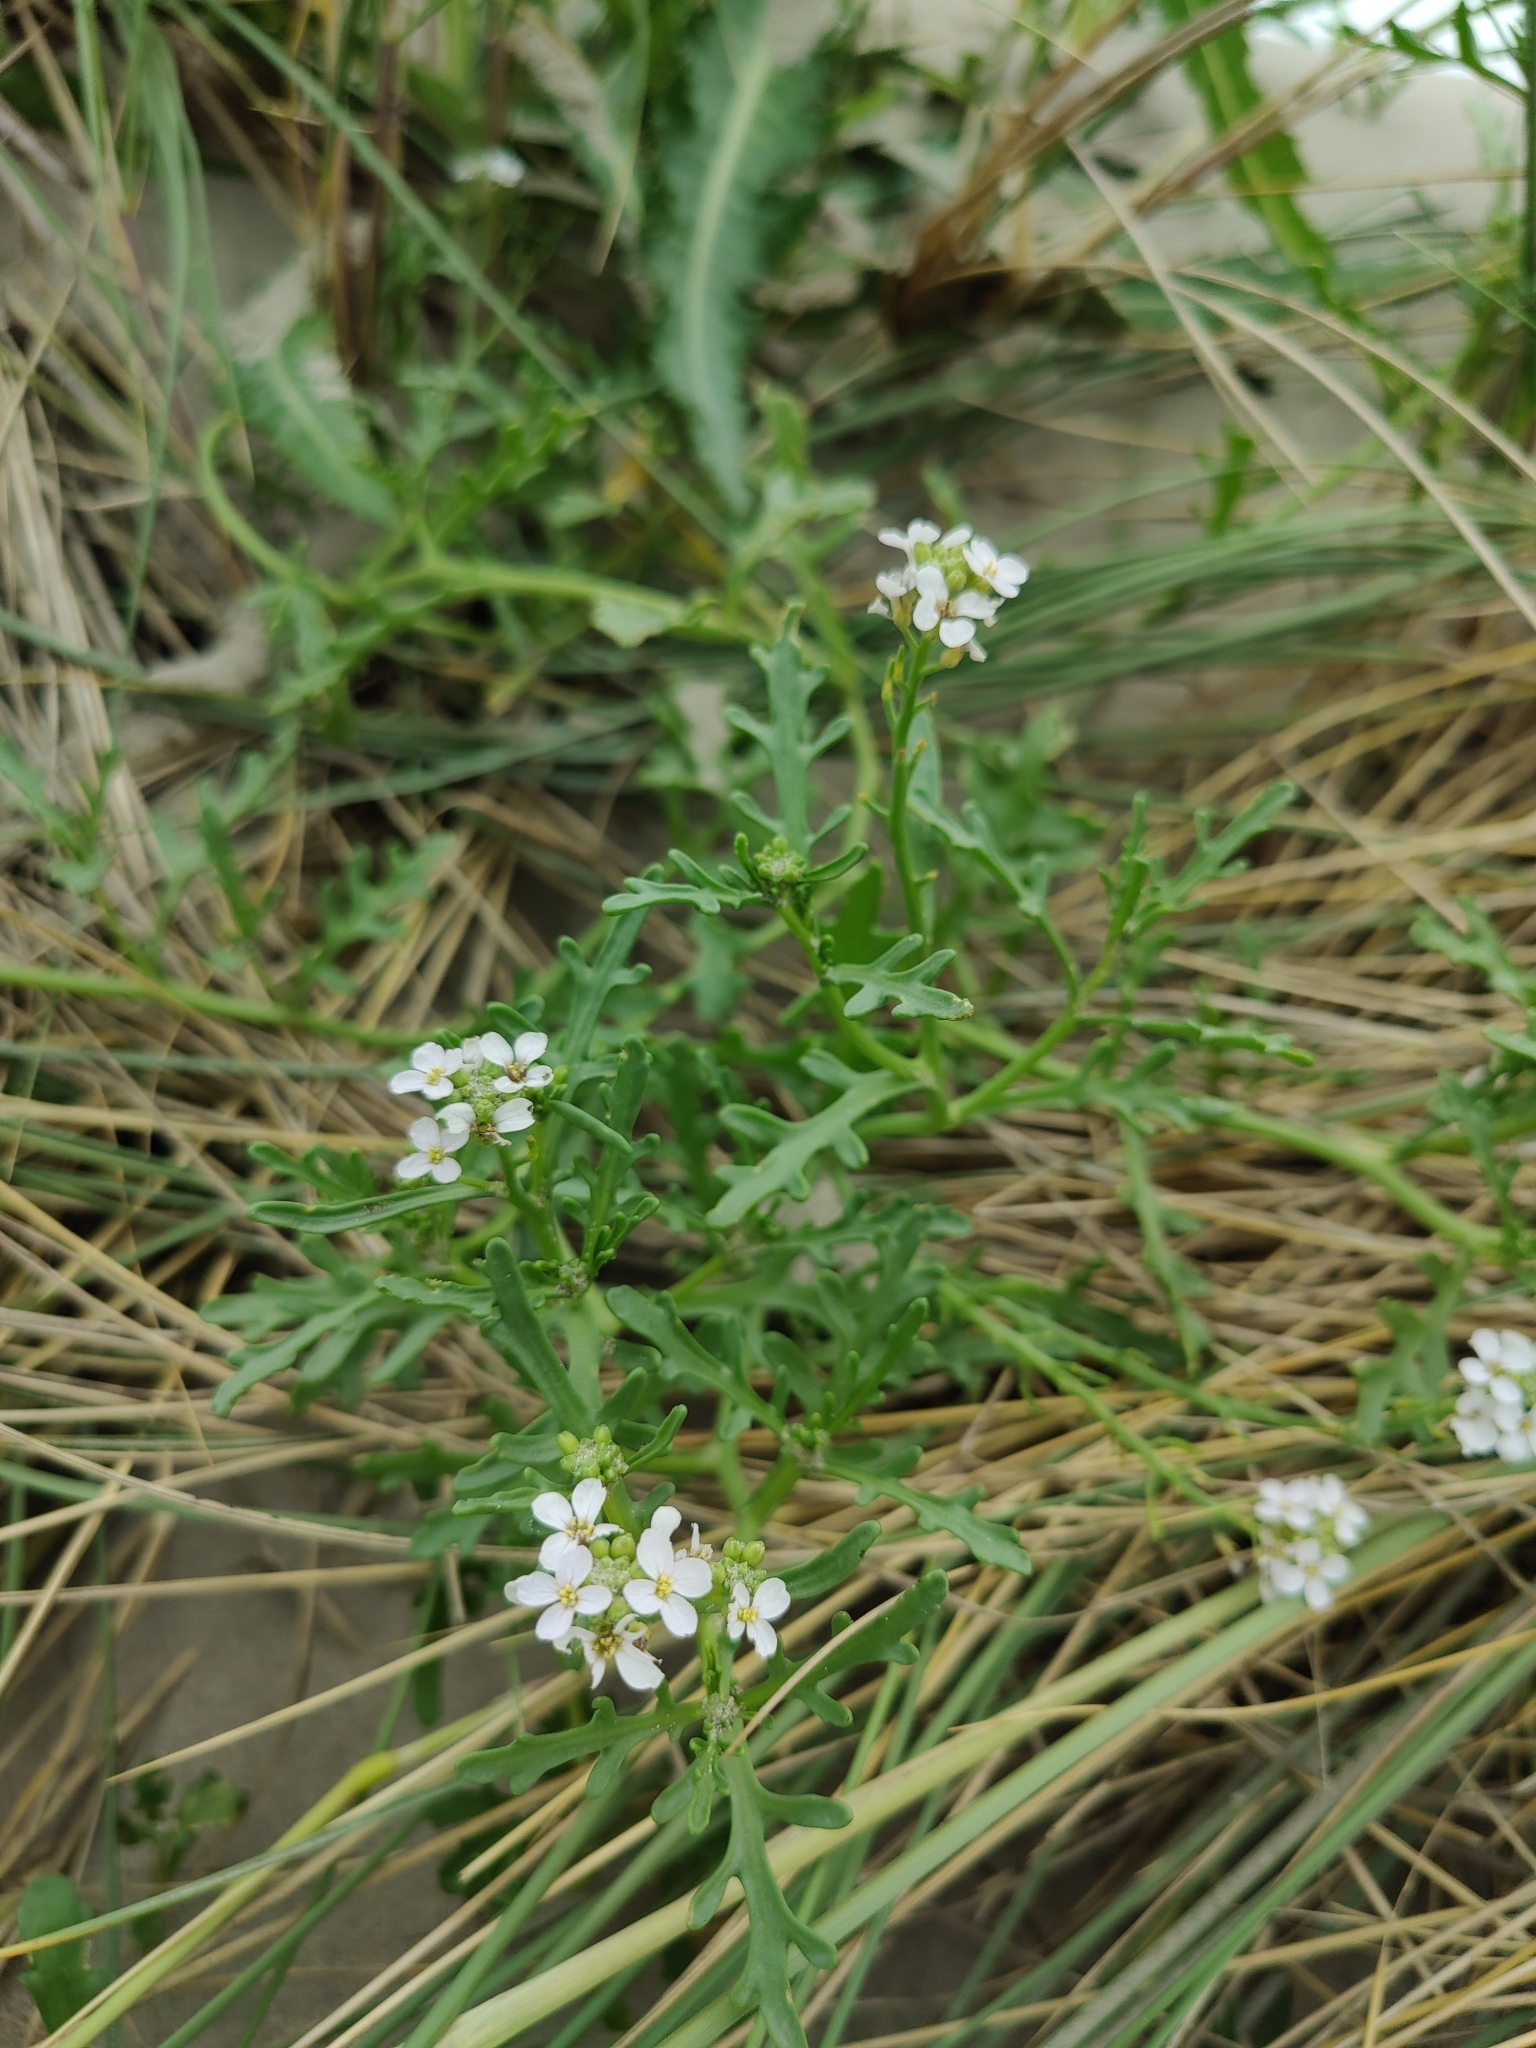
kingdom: Plantae
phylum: Tracheophyta
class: Magnoliopsida
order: Brassicales
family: Brassicaceae
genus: Cakile
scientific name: Cakile maritima
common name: Sea rocket
